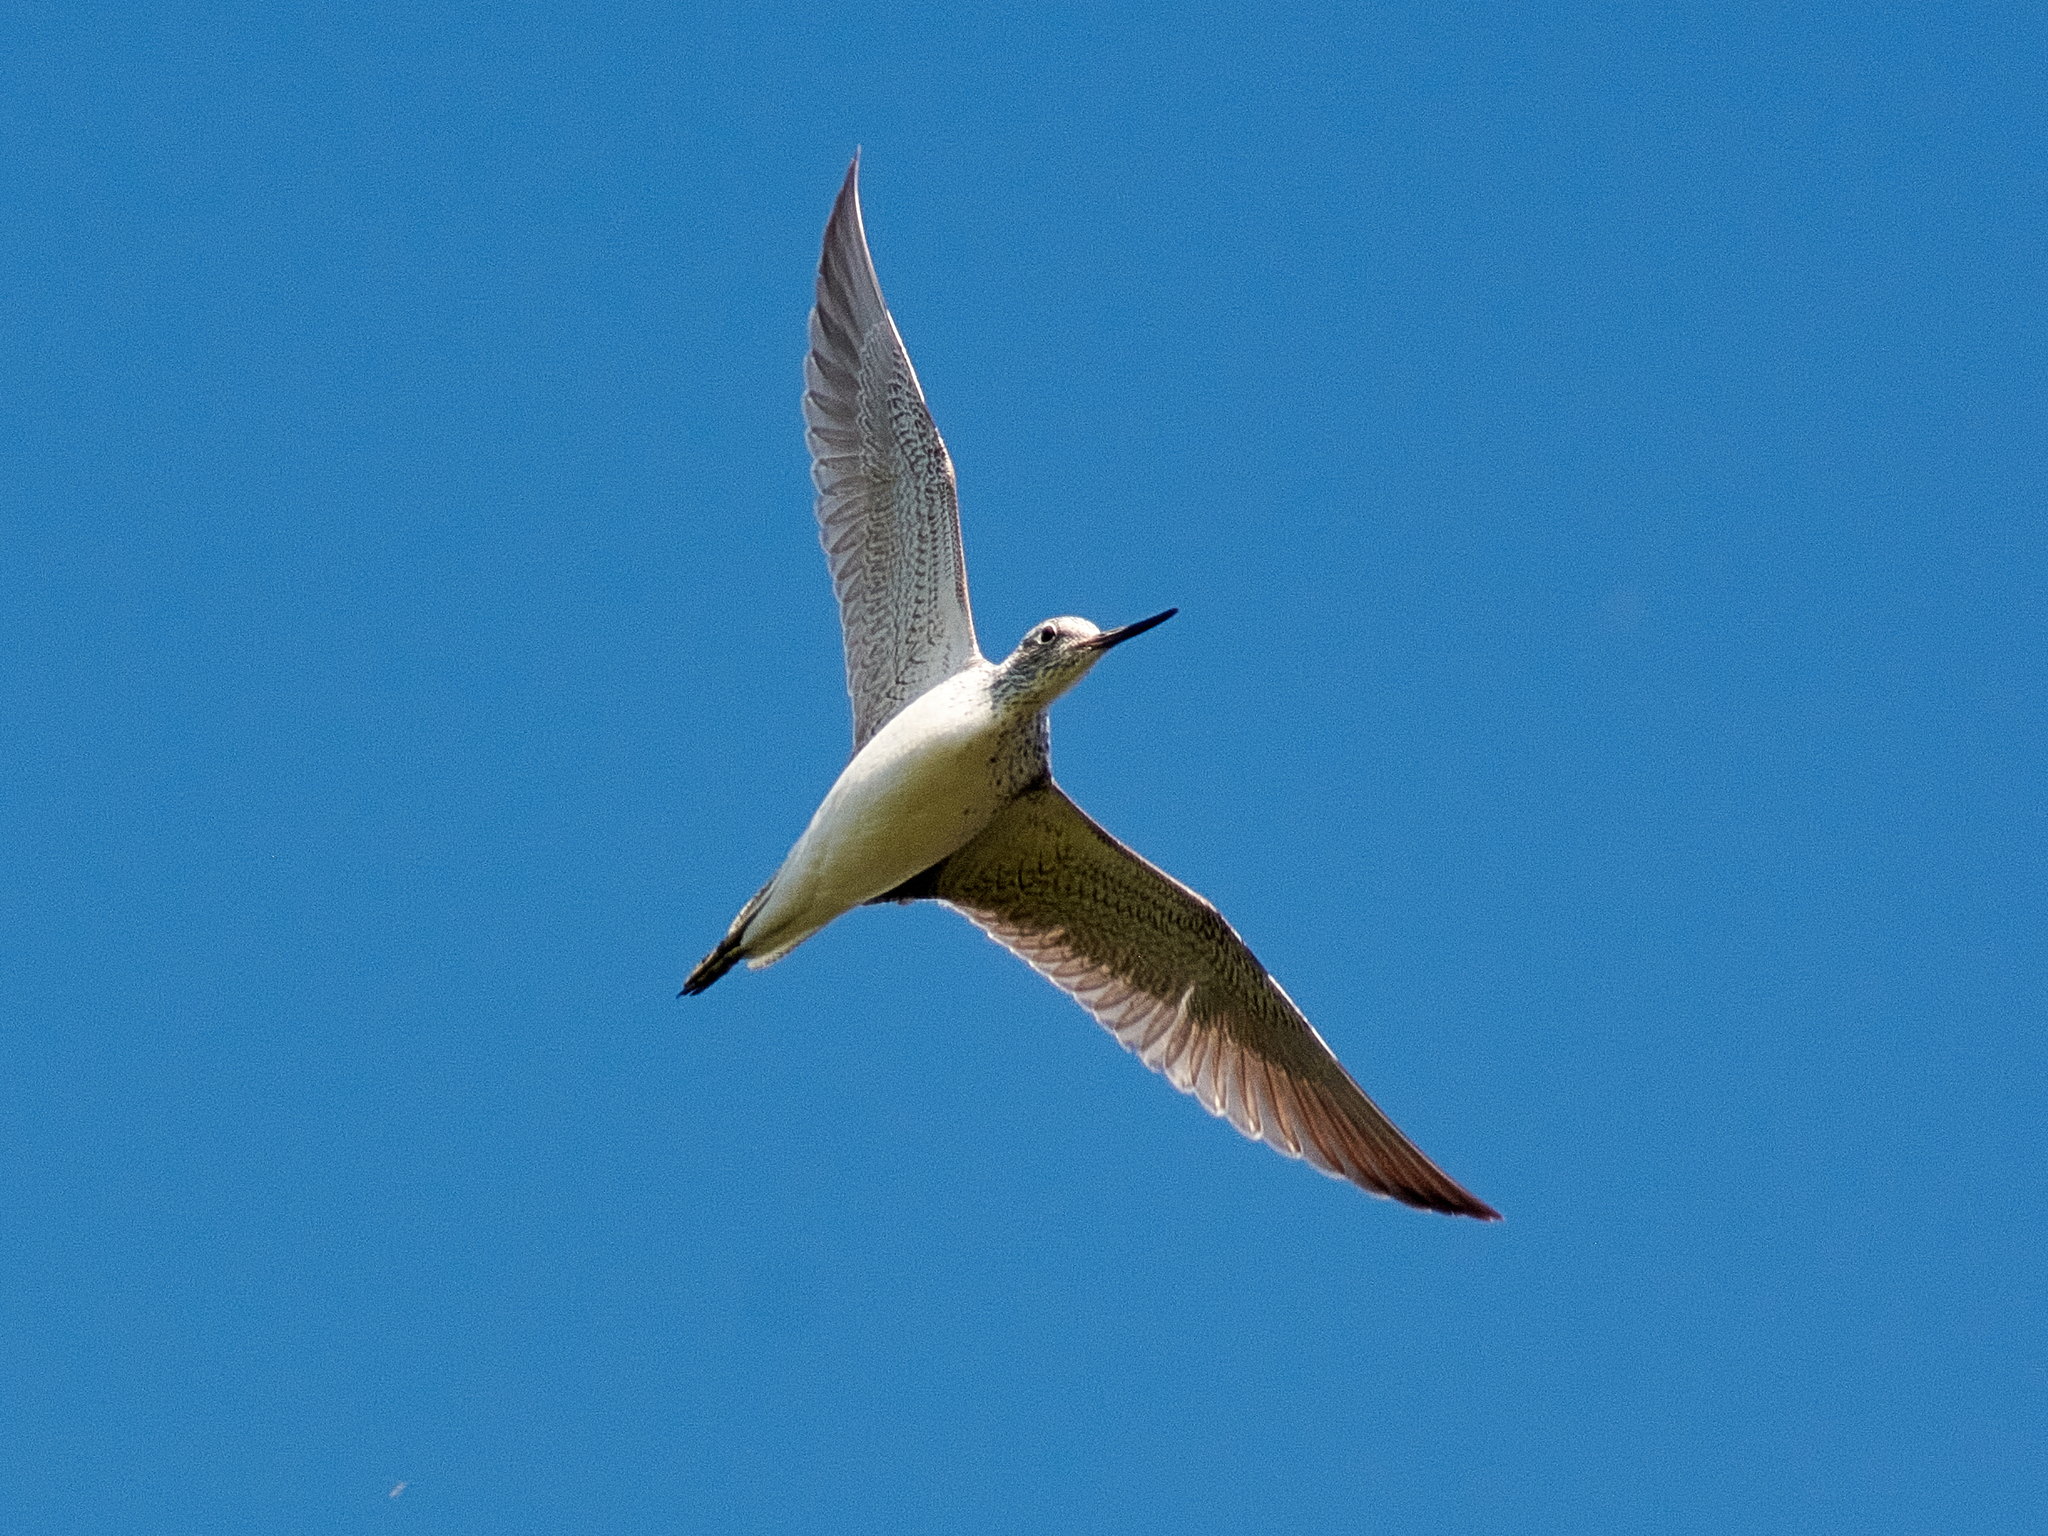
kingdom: Animalia
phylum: Chordata
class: Aves
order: Charadriiformes
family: Scolopacidae
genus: Tringa
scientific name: Tringa nebularia
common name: Common greenshank
